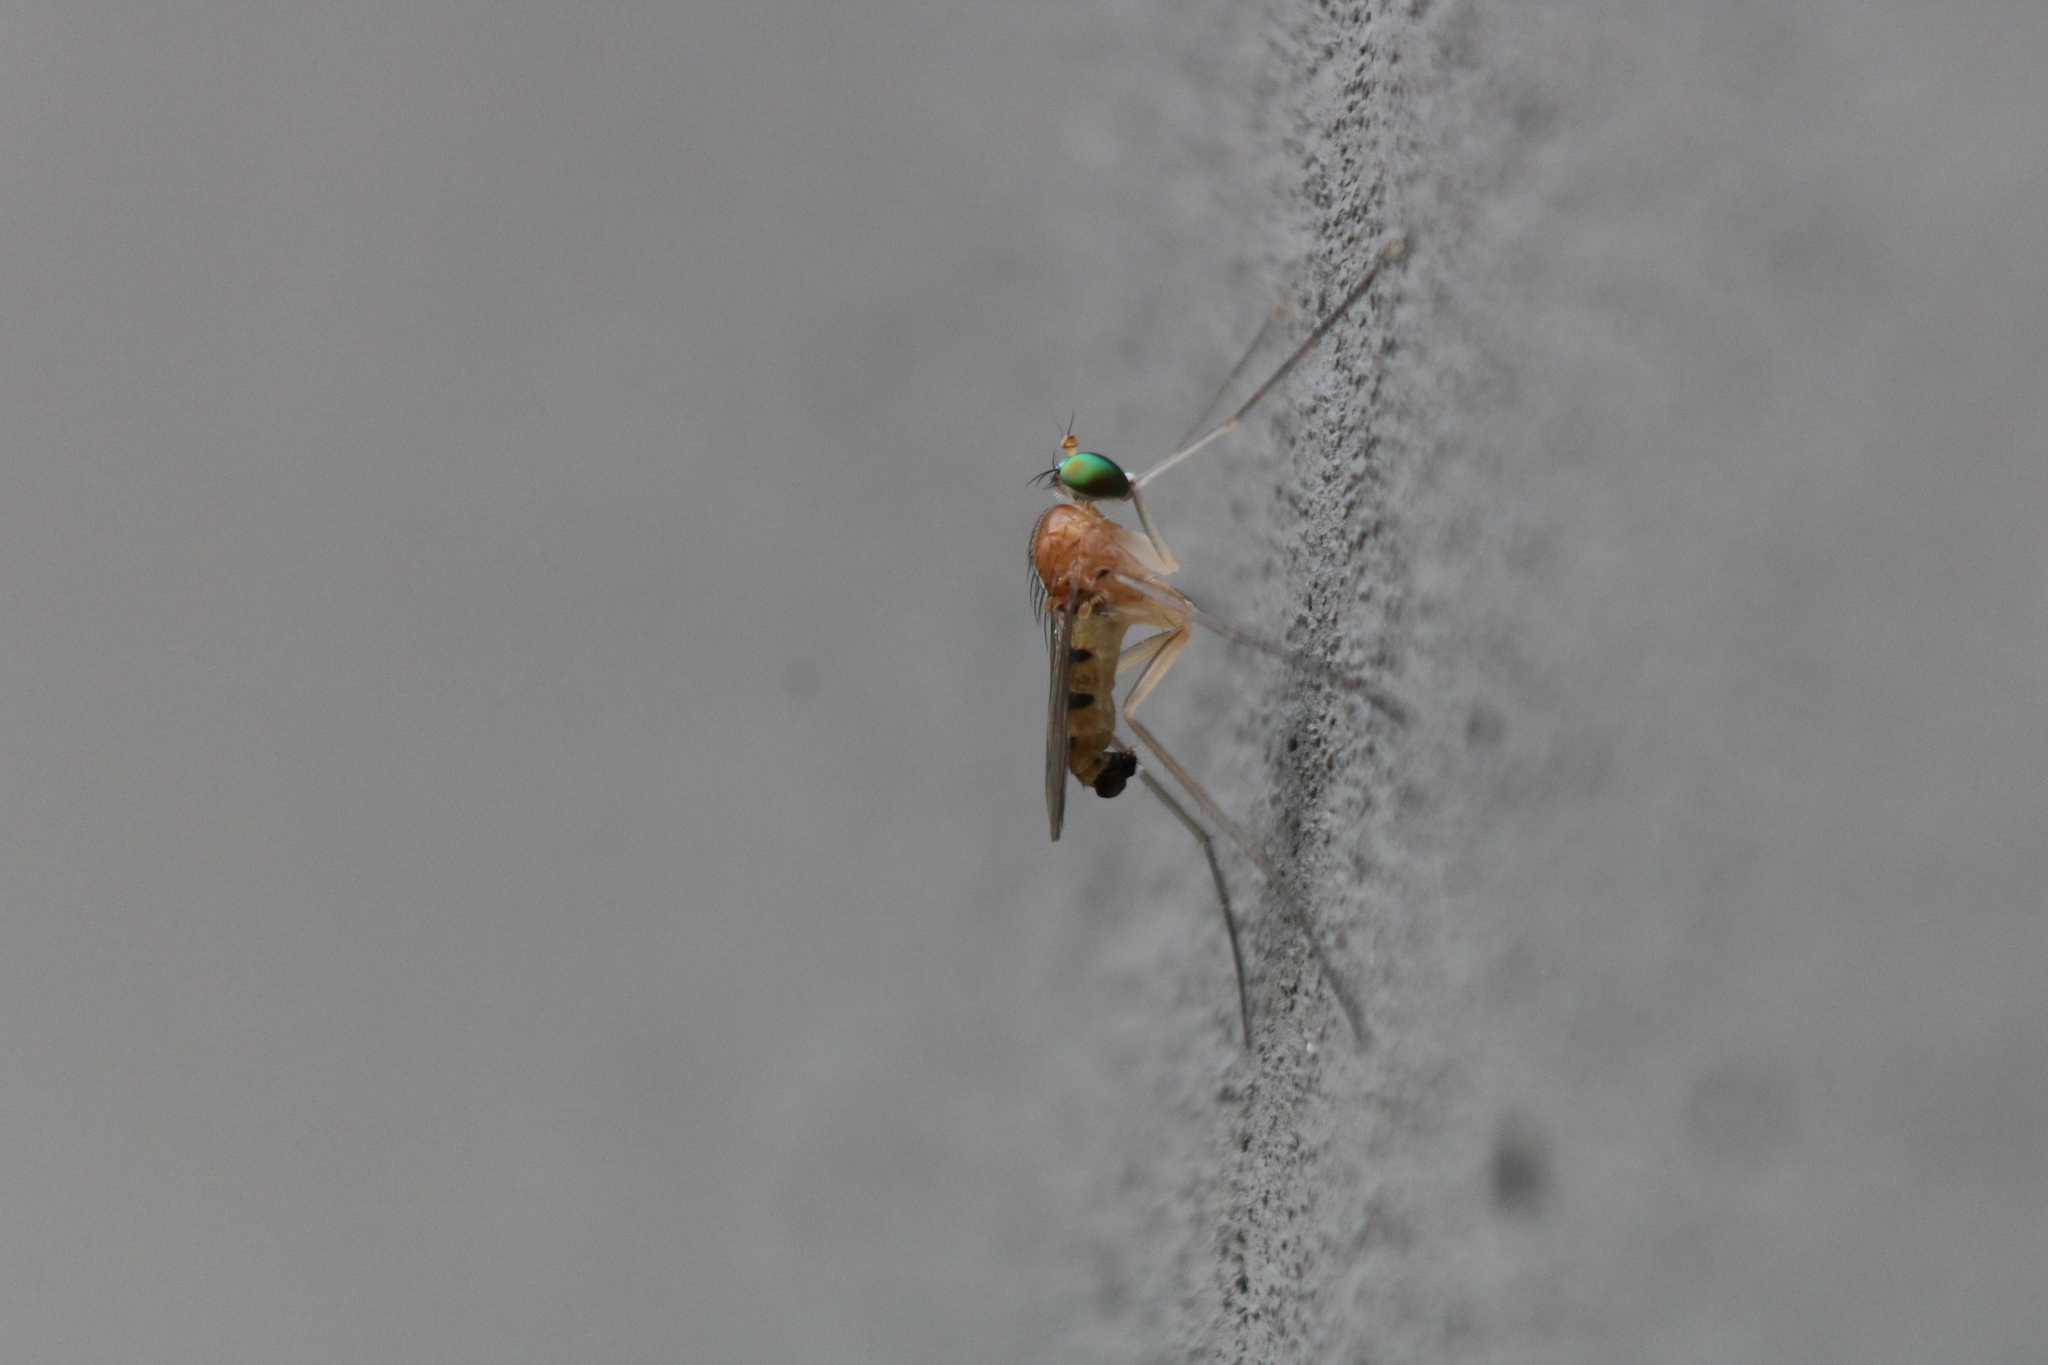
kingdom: Animalia
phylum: Arthropoda
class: Insecta
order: Diptera
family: Dolichopodidae
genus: Neurigona
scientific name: Neurigona rubella
